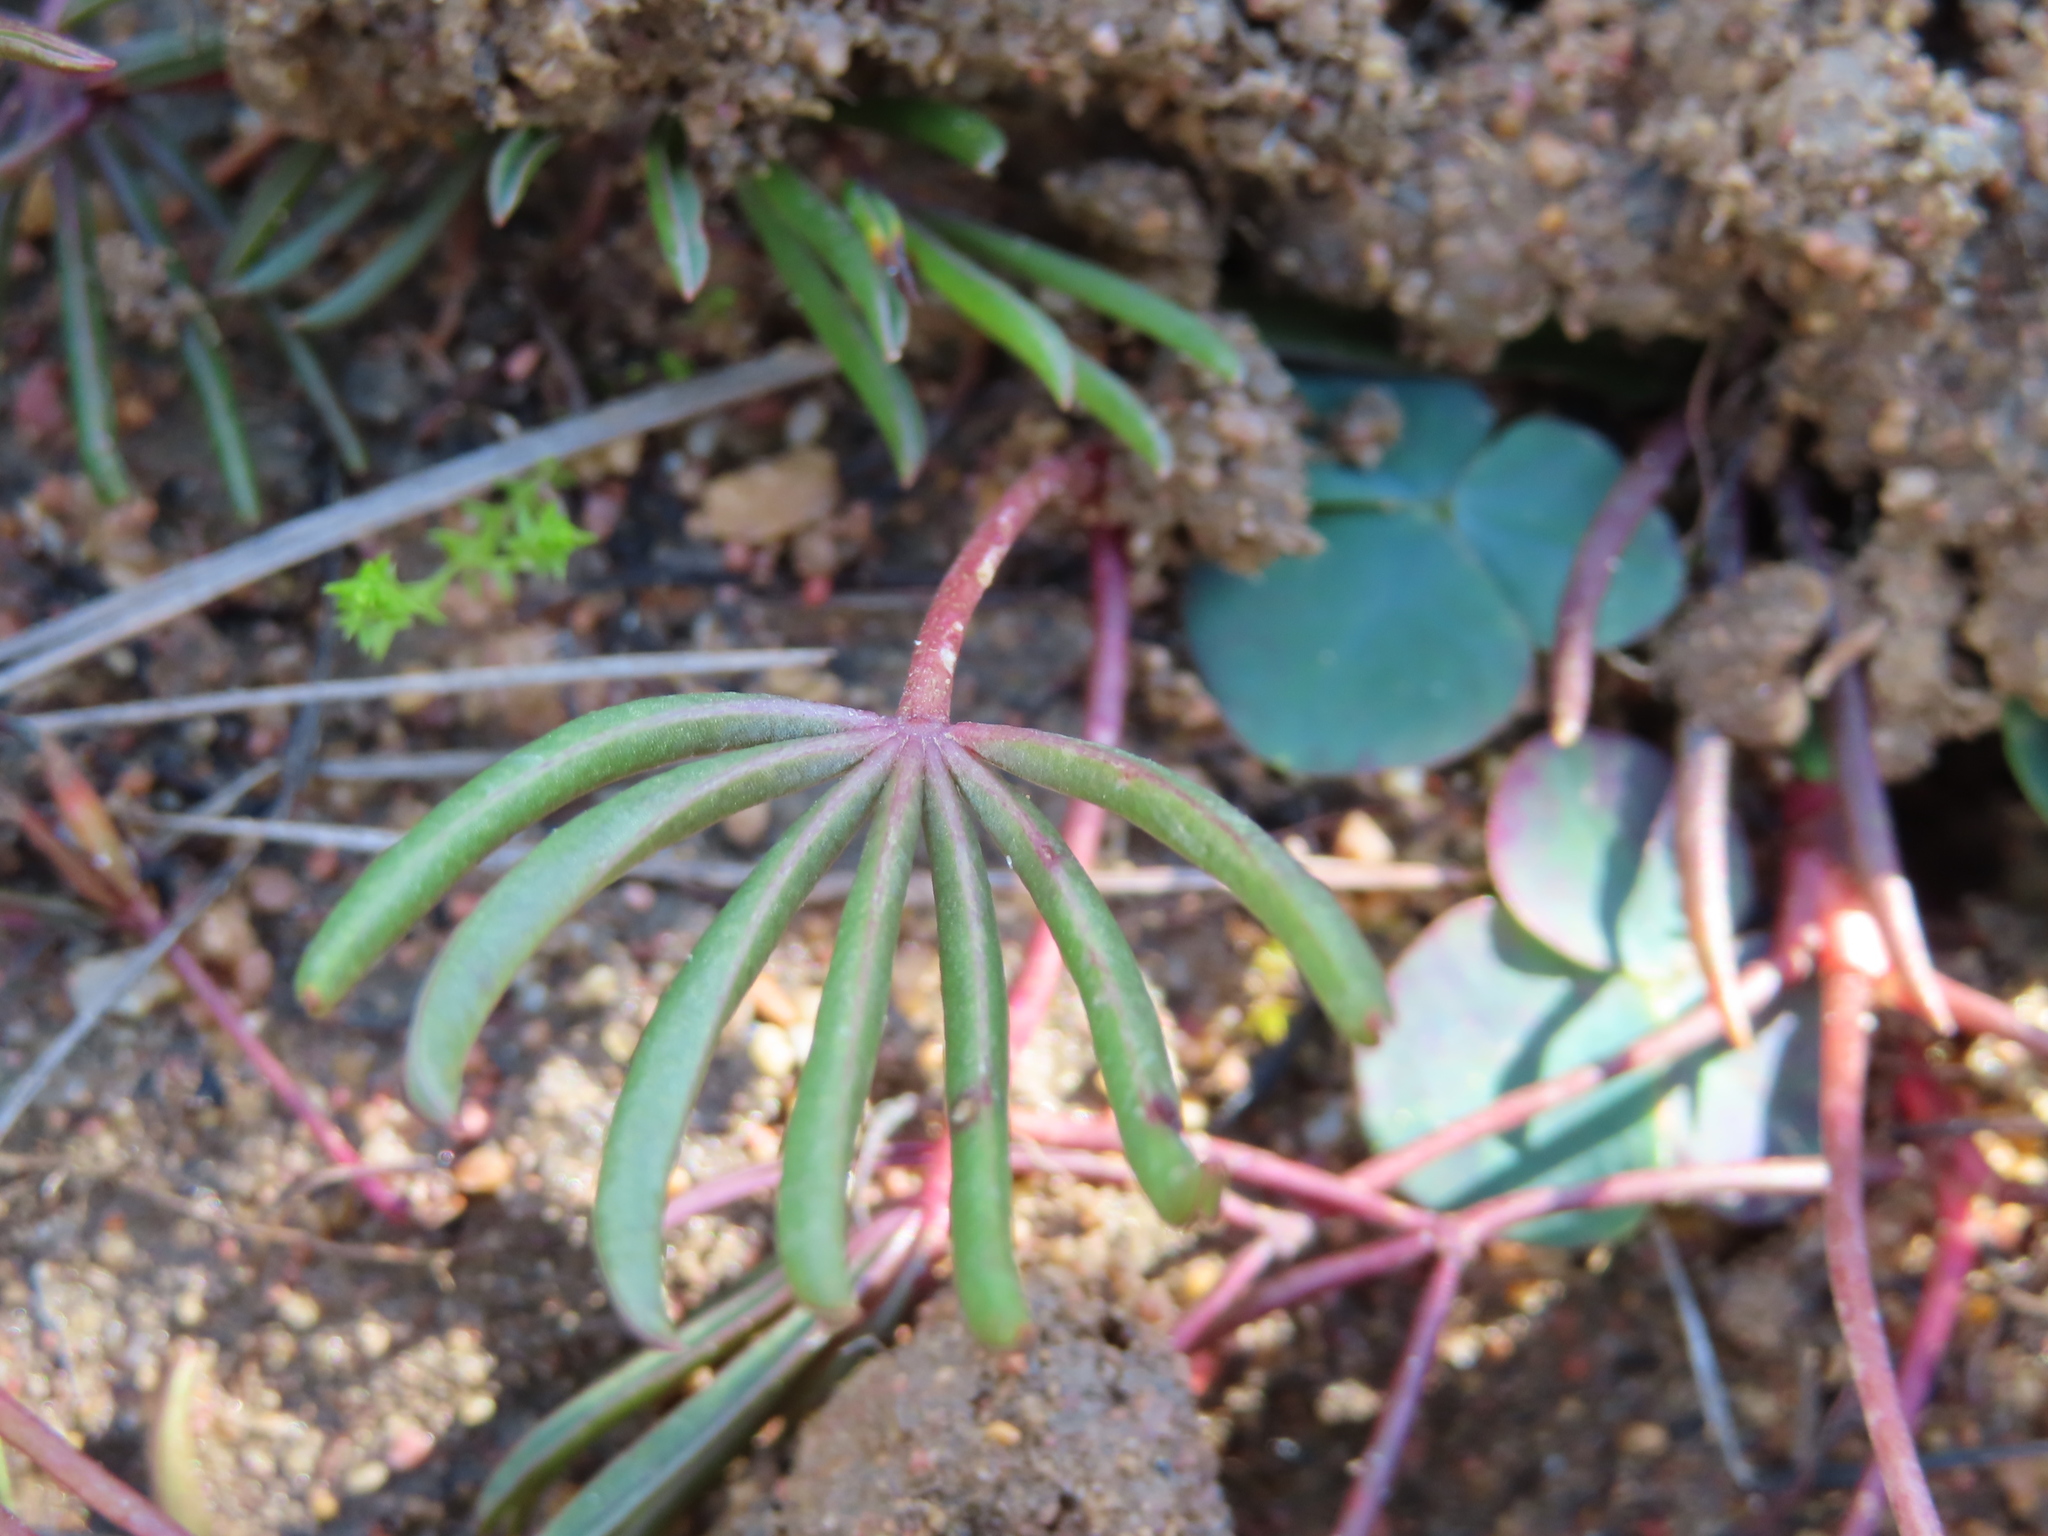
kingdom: Plantae
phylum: Tracheophyta
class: Magnoliopsida
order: Oxalidales
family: Oxalidaceae
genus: Oxalis
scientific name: Oxalis flava
